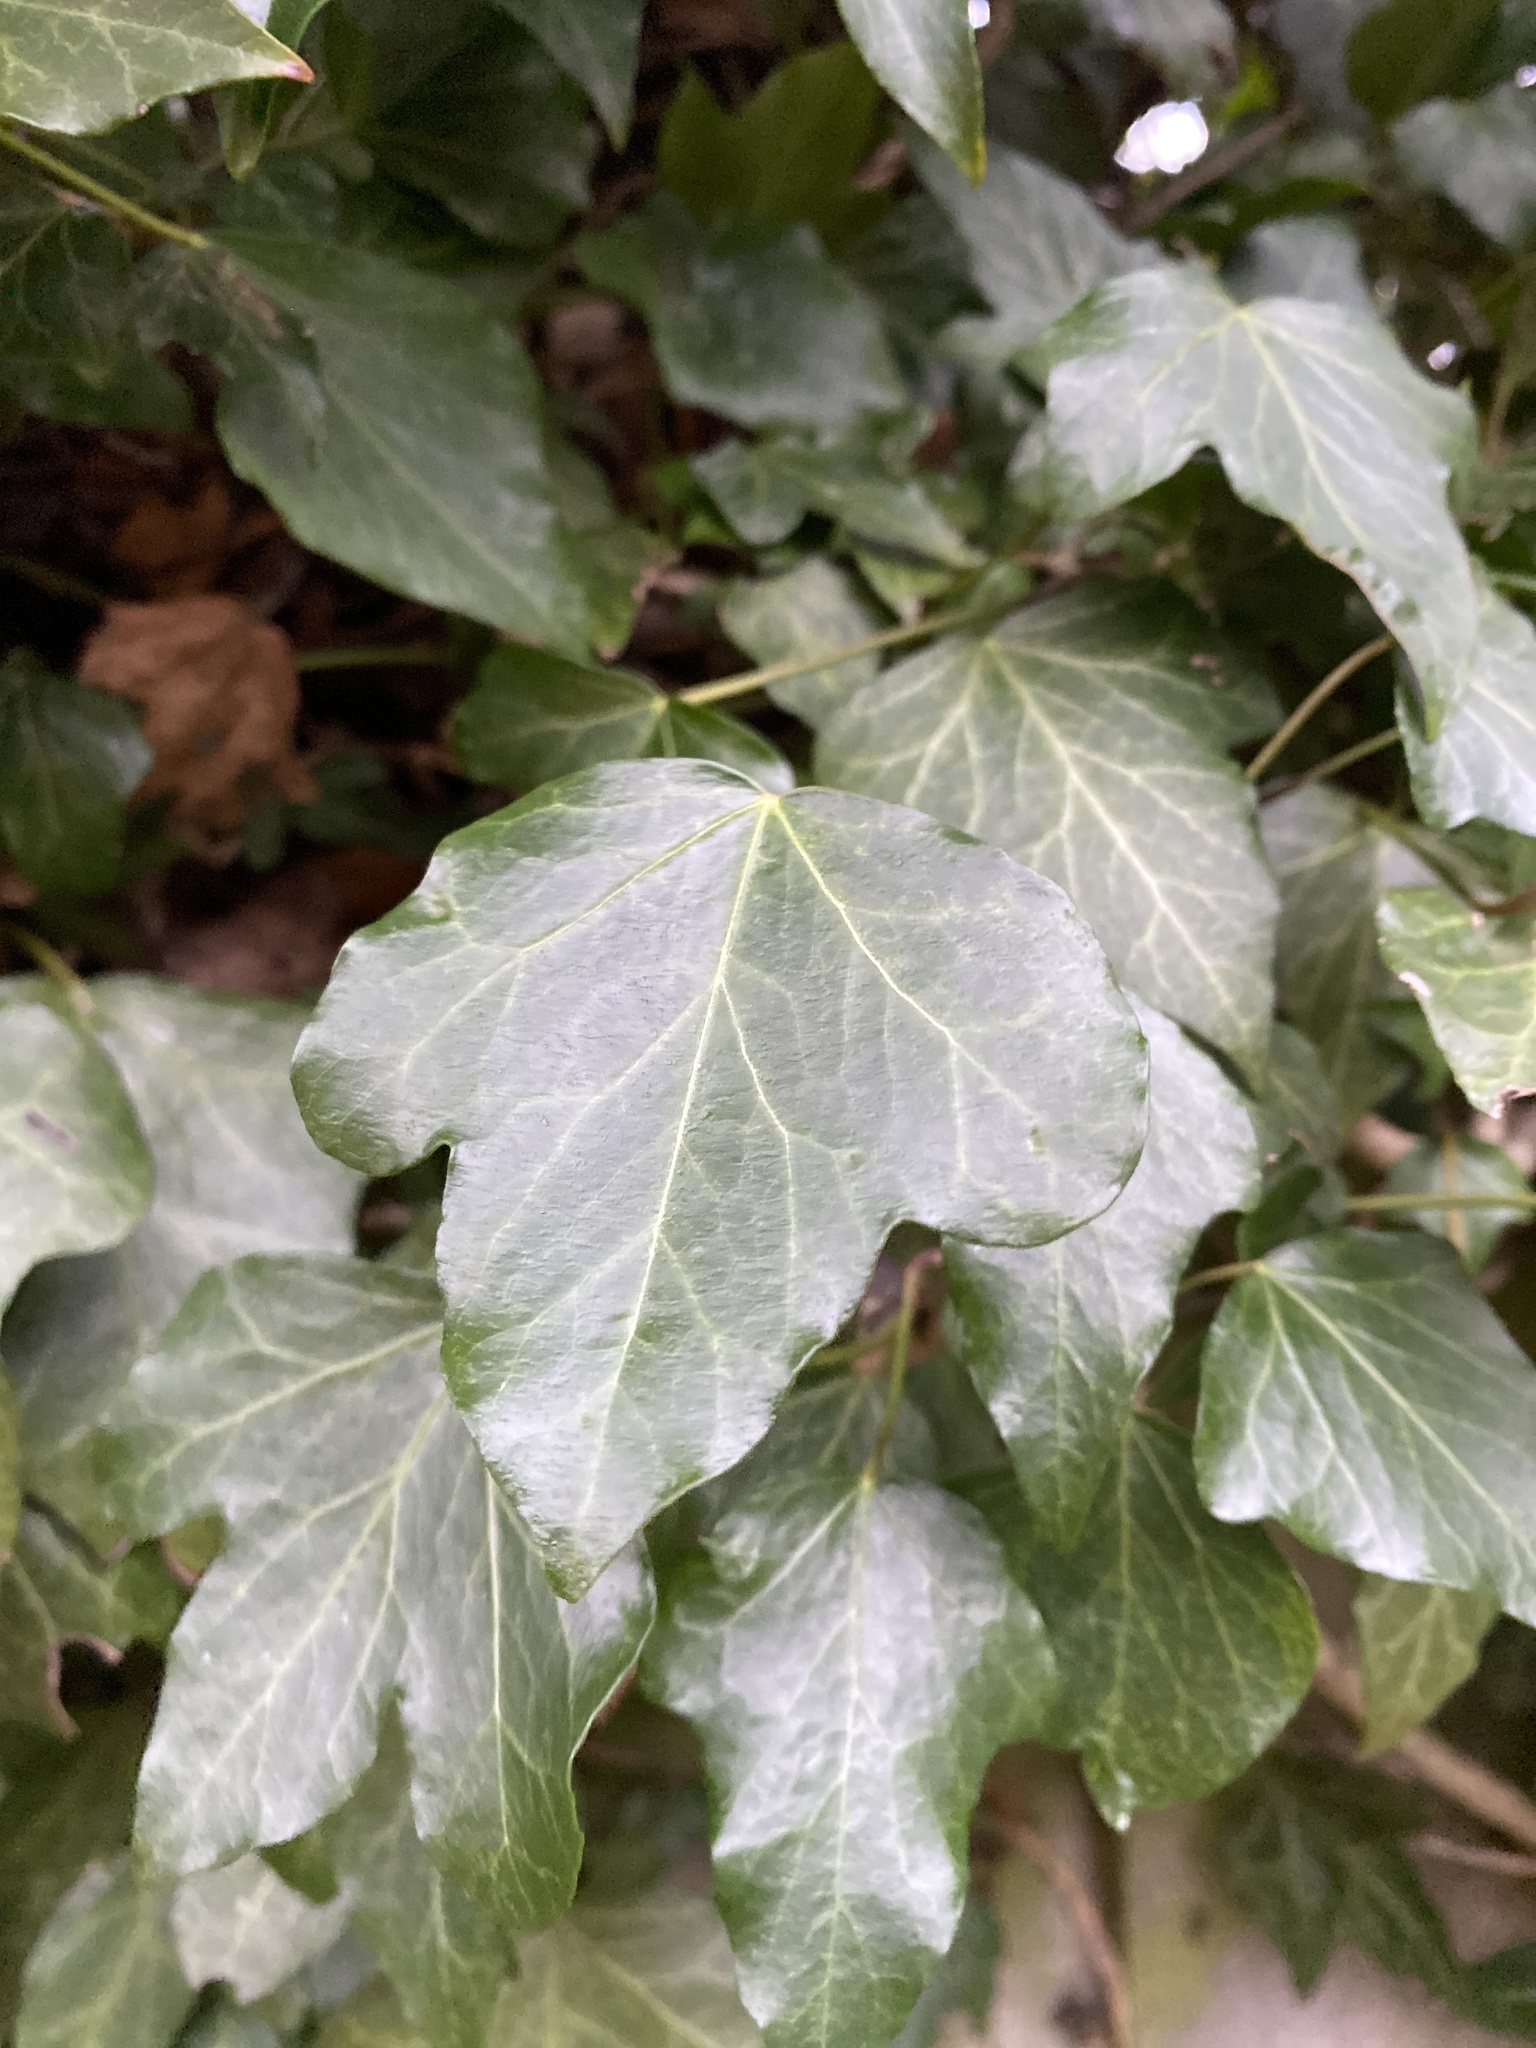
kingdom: Plantae
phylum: Tracheophyta
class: Magnoliopsida
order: Apiales
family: Araliaceae
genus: Hedera
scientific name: Hedera helix
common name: Ivy
